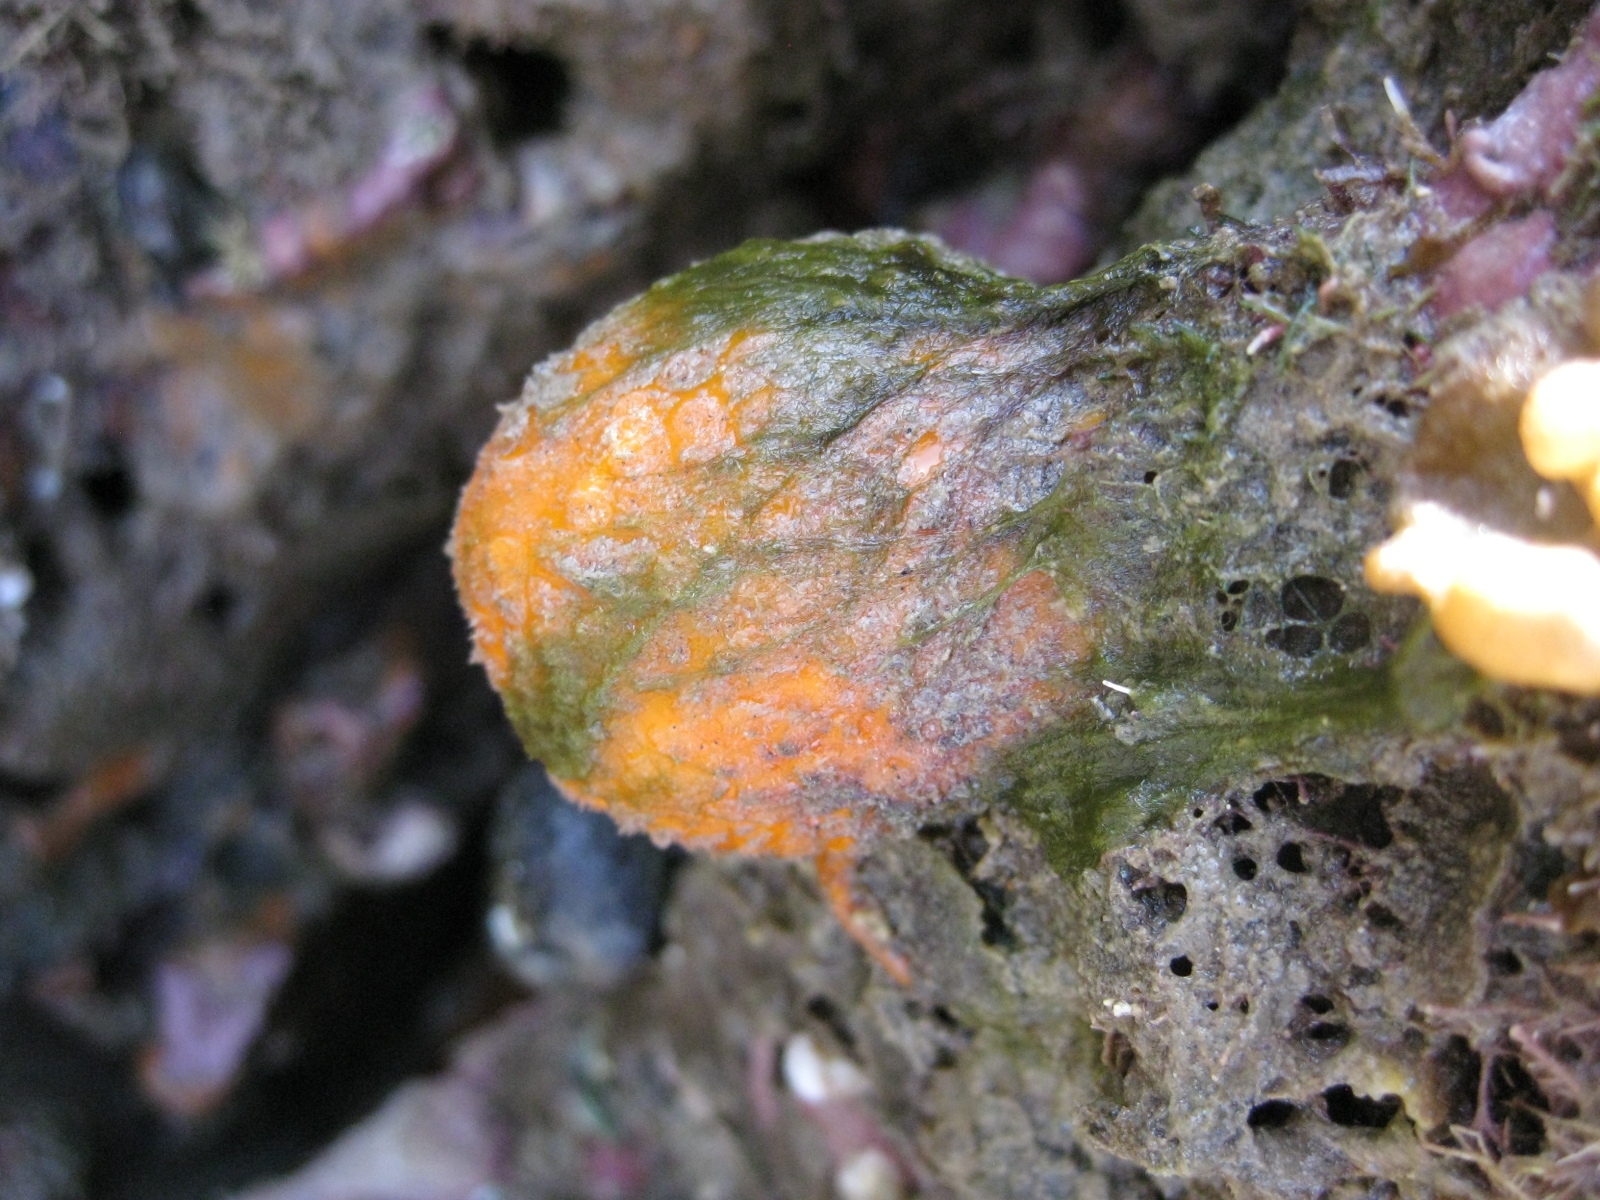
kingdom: Animalia
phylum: Porifera
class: Demospongiae
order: Tethyida
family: Tethyidae
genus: Tethya
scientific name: Tethya burtoni
